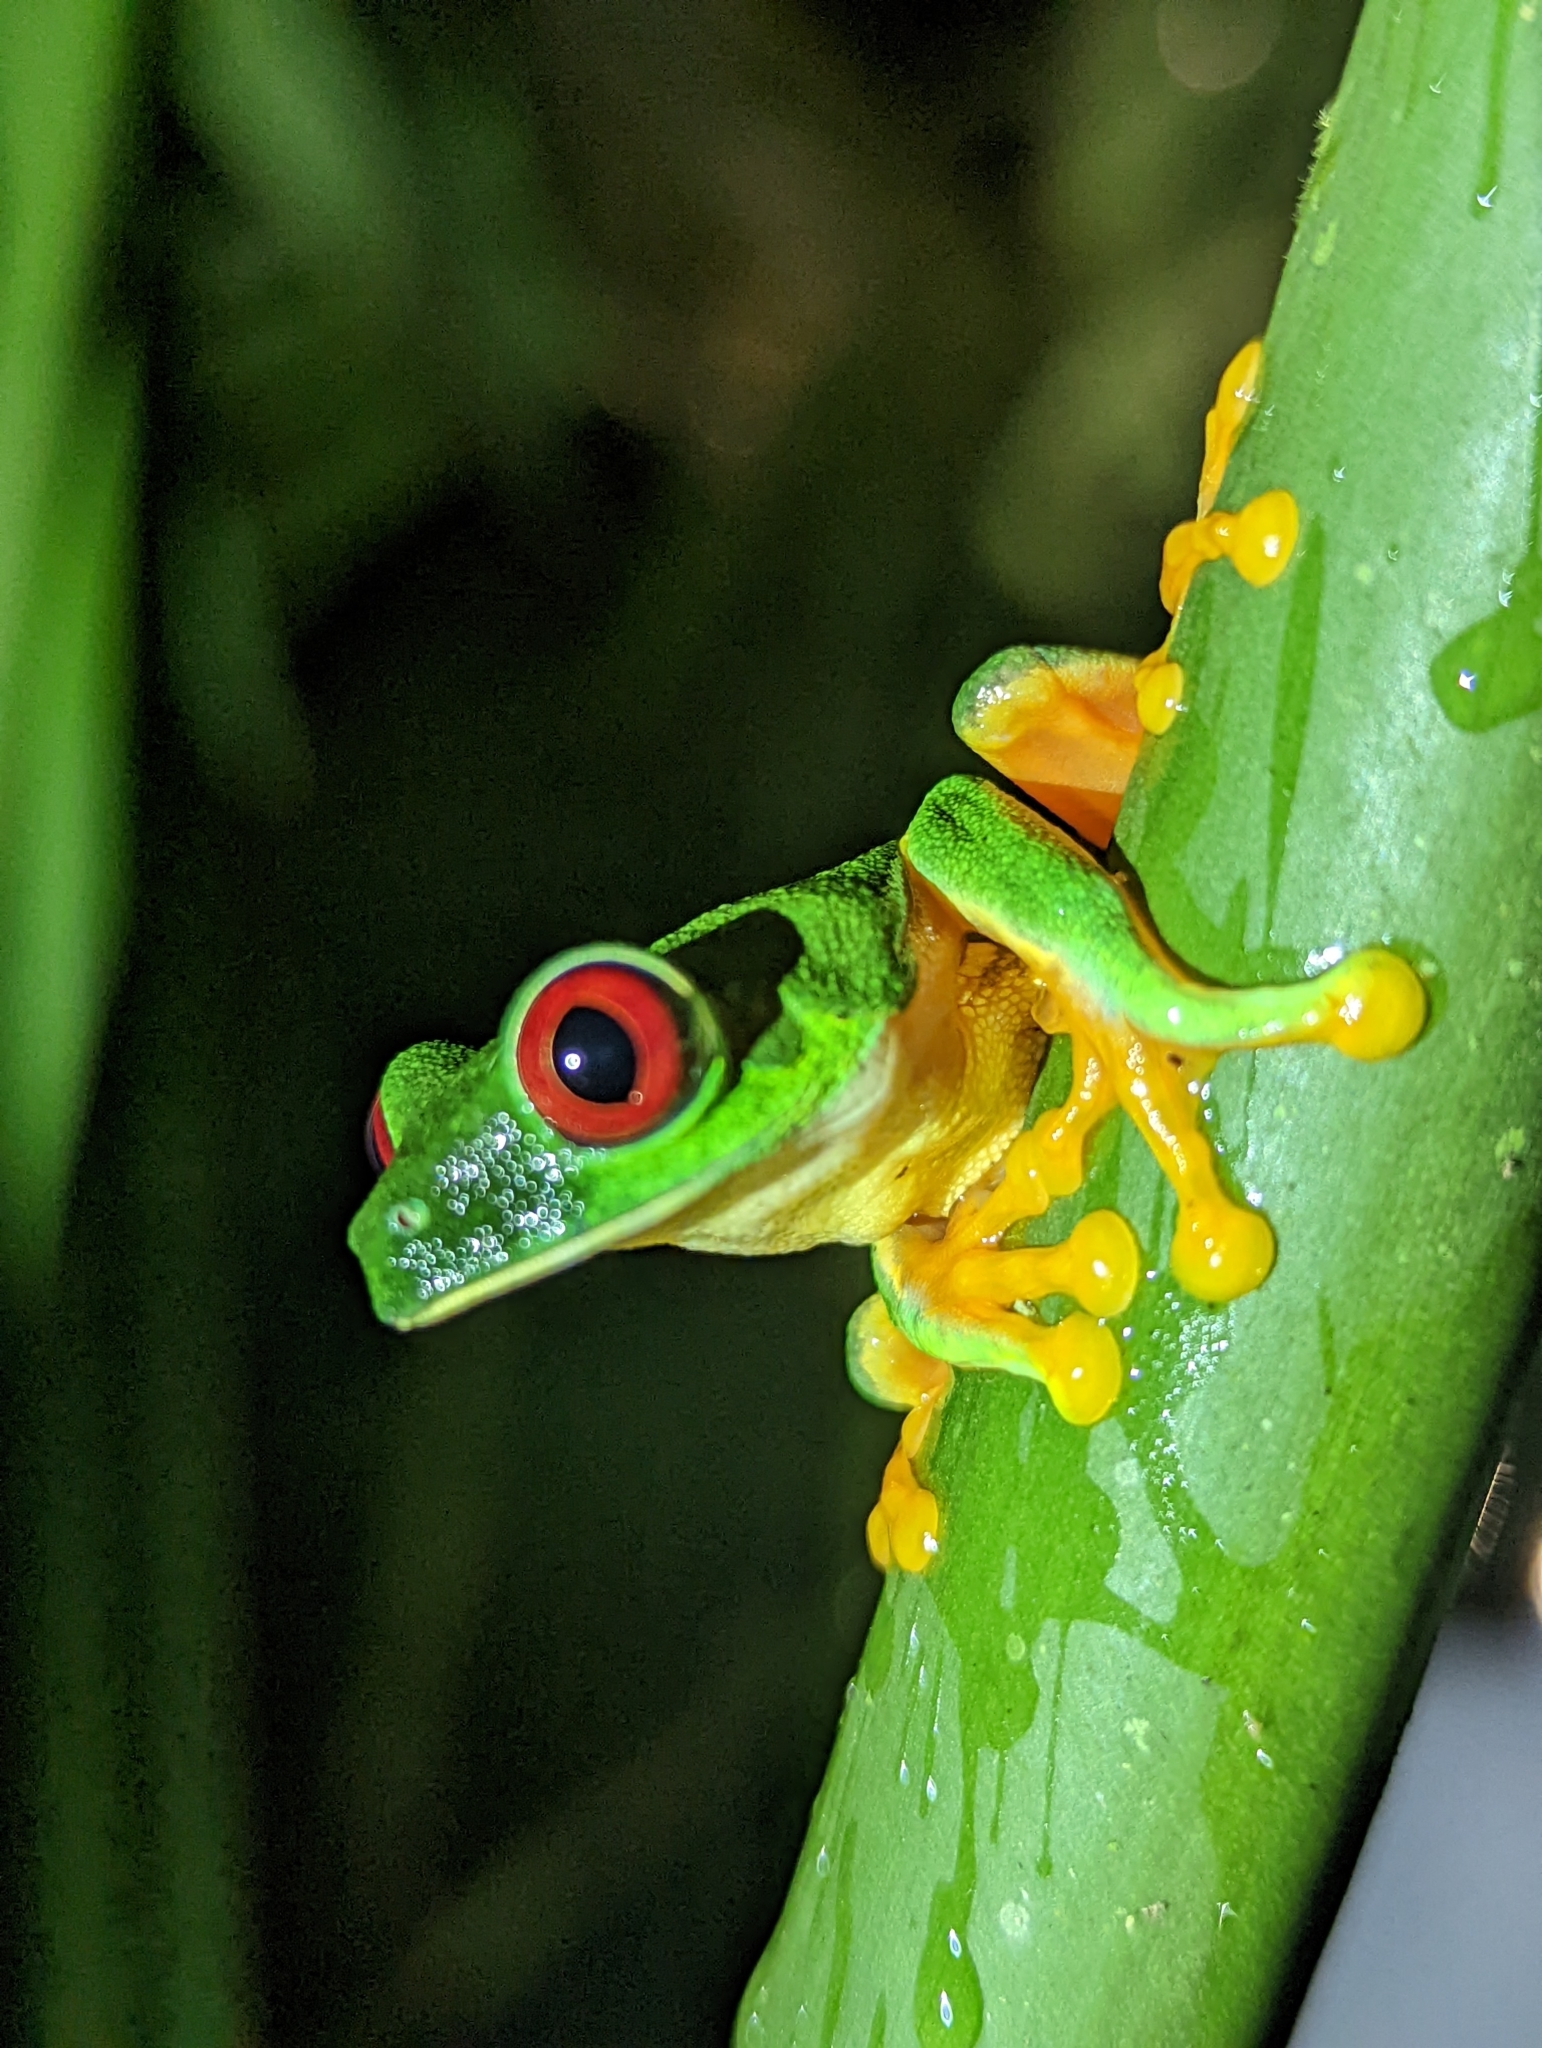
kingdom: Animalia
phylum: Chordata
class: Amphibia
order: Anura
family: Phyllomedusidae
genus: Agalychnis
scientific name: Agalychnis callidryas
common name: Red-eyed treefrog
